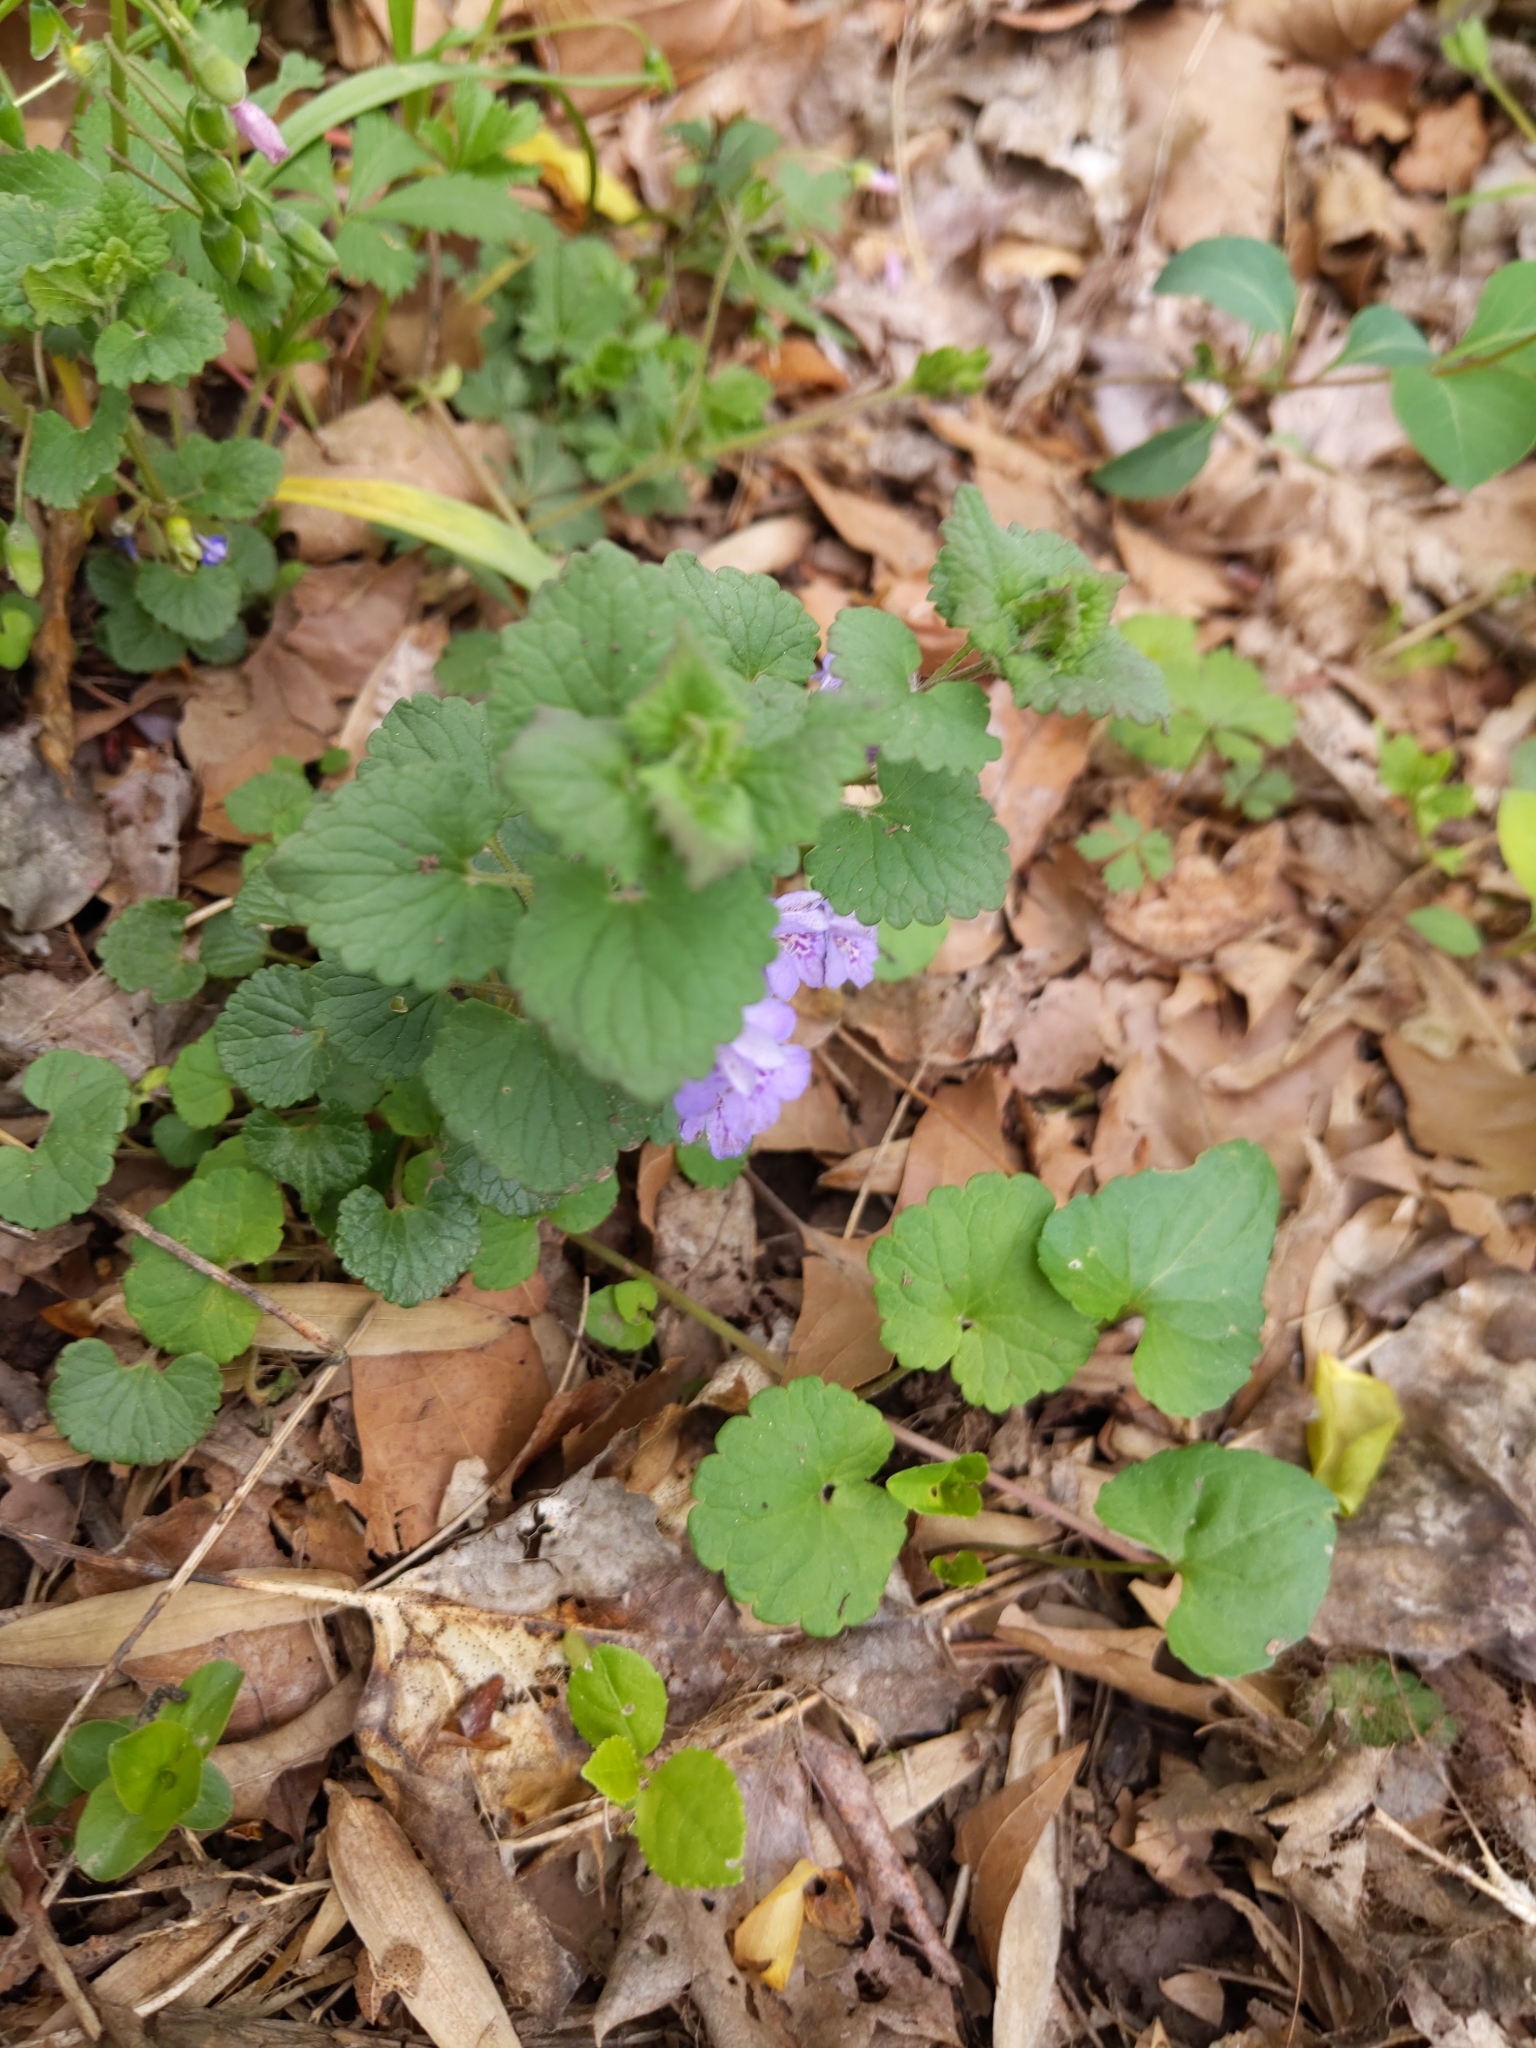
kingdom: Plantae
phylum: Tracheophyta
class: Magnoliopsida
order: Lamiales
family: Lamiaceae
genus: Glechoma
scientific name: Glechoma hederacea
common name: Ground ivy
